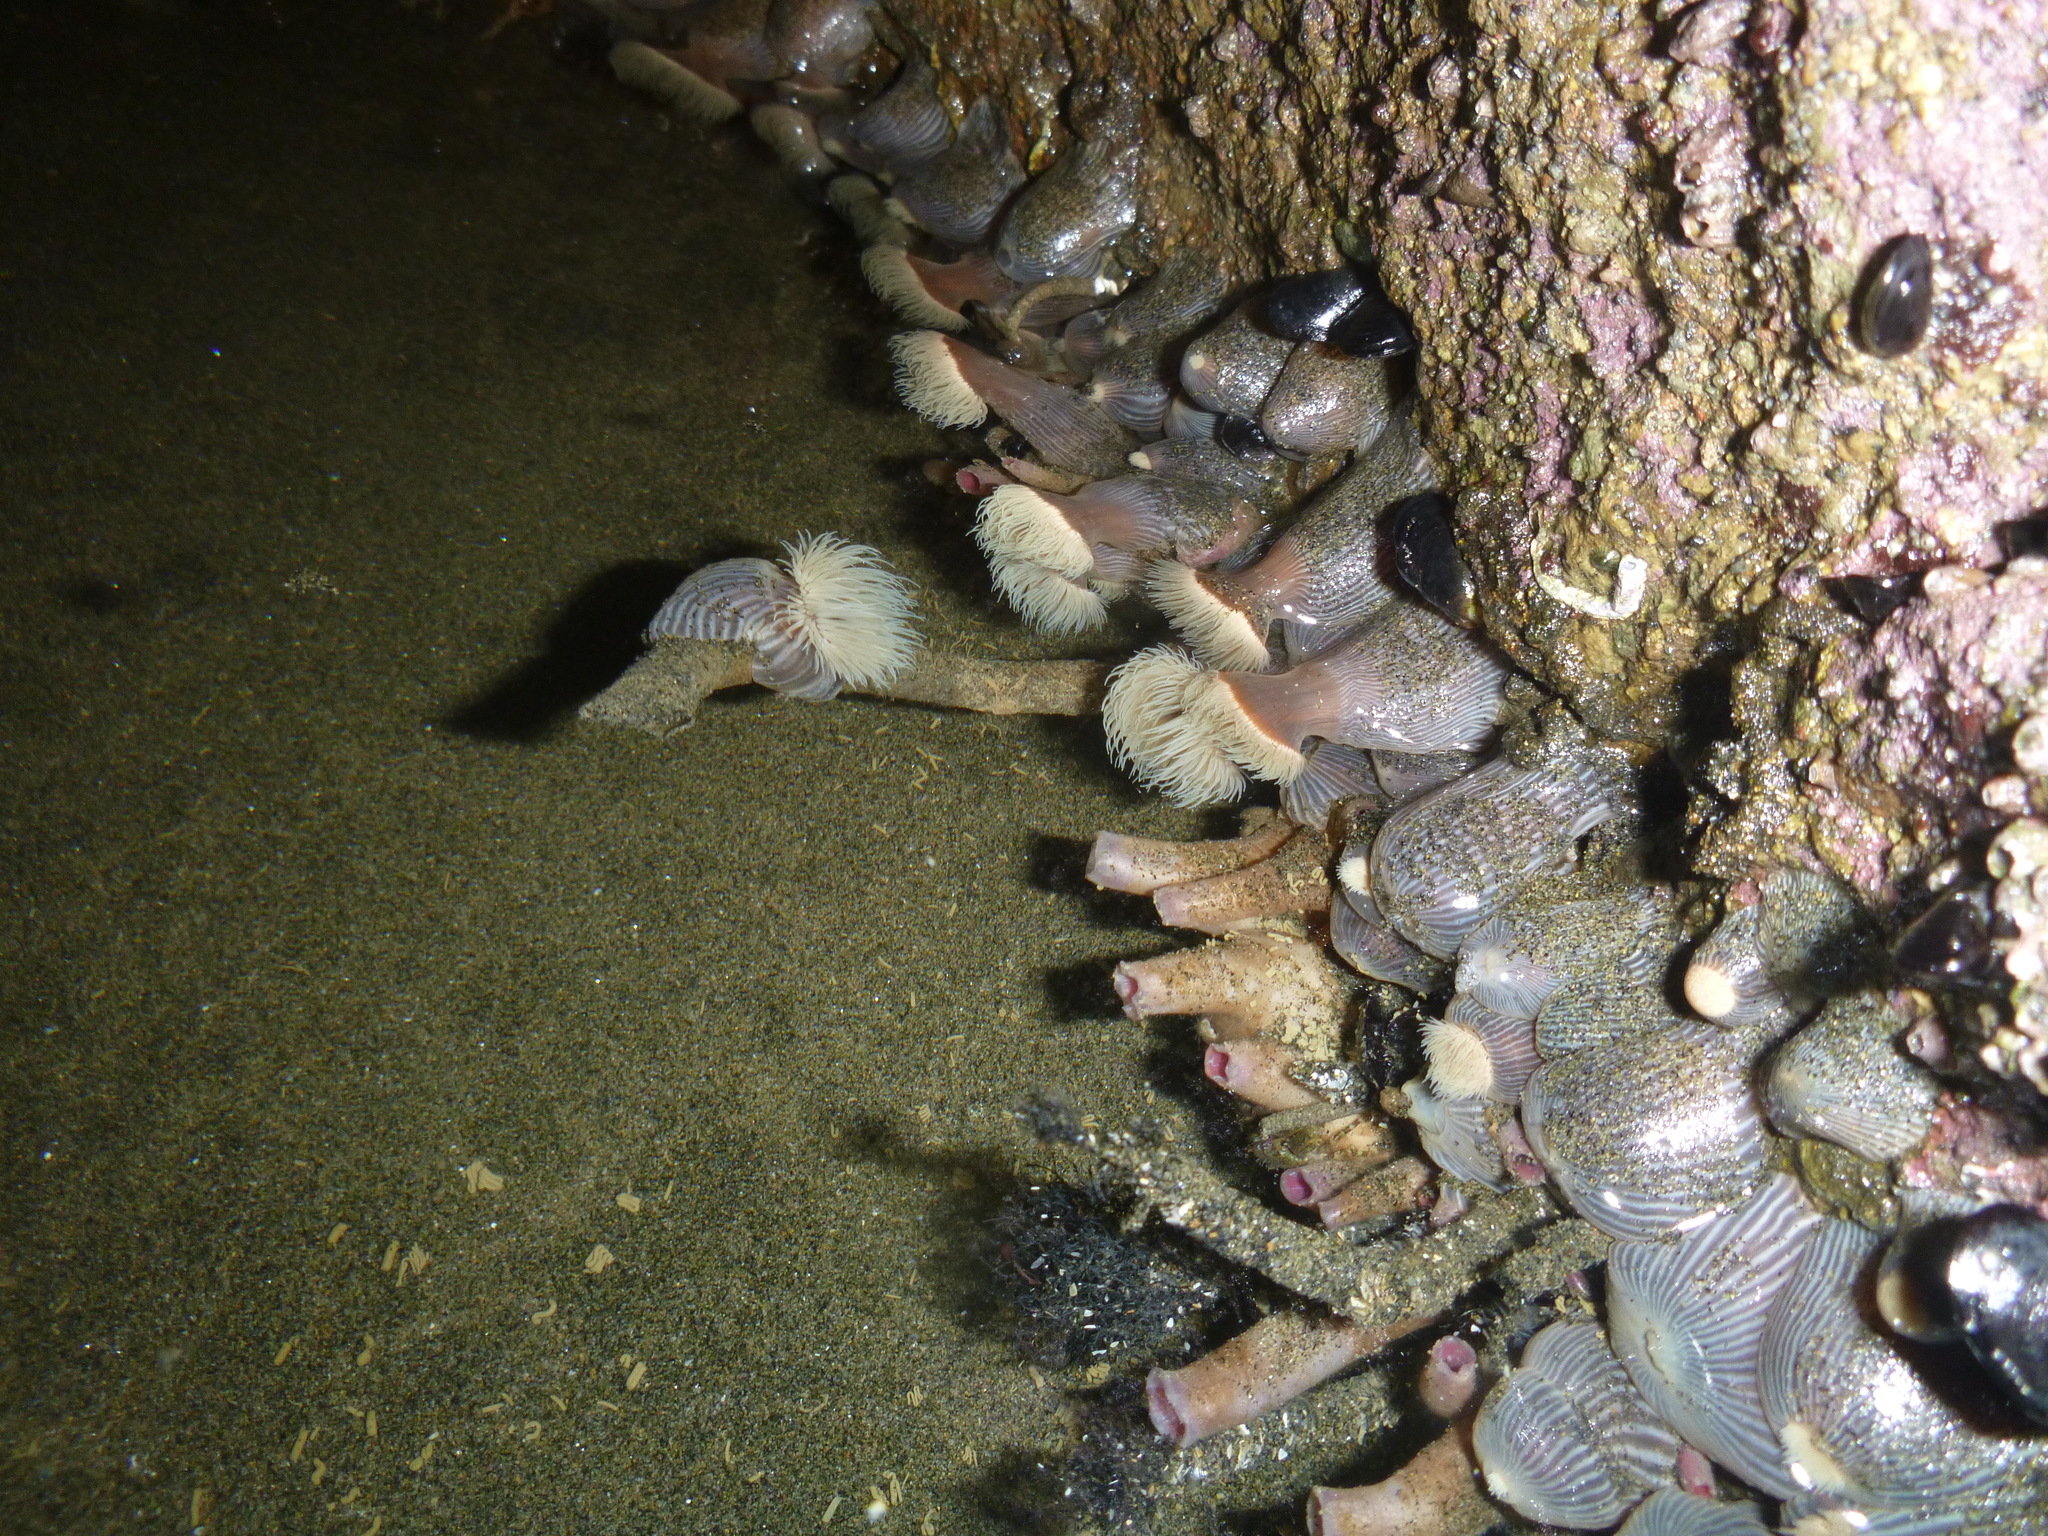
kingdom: Animalia
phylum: Cnidaria
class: Anthozoa
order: Actiniaria
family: Diadumenidae
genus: Diadumene
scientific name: Diadumene neozelanica
